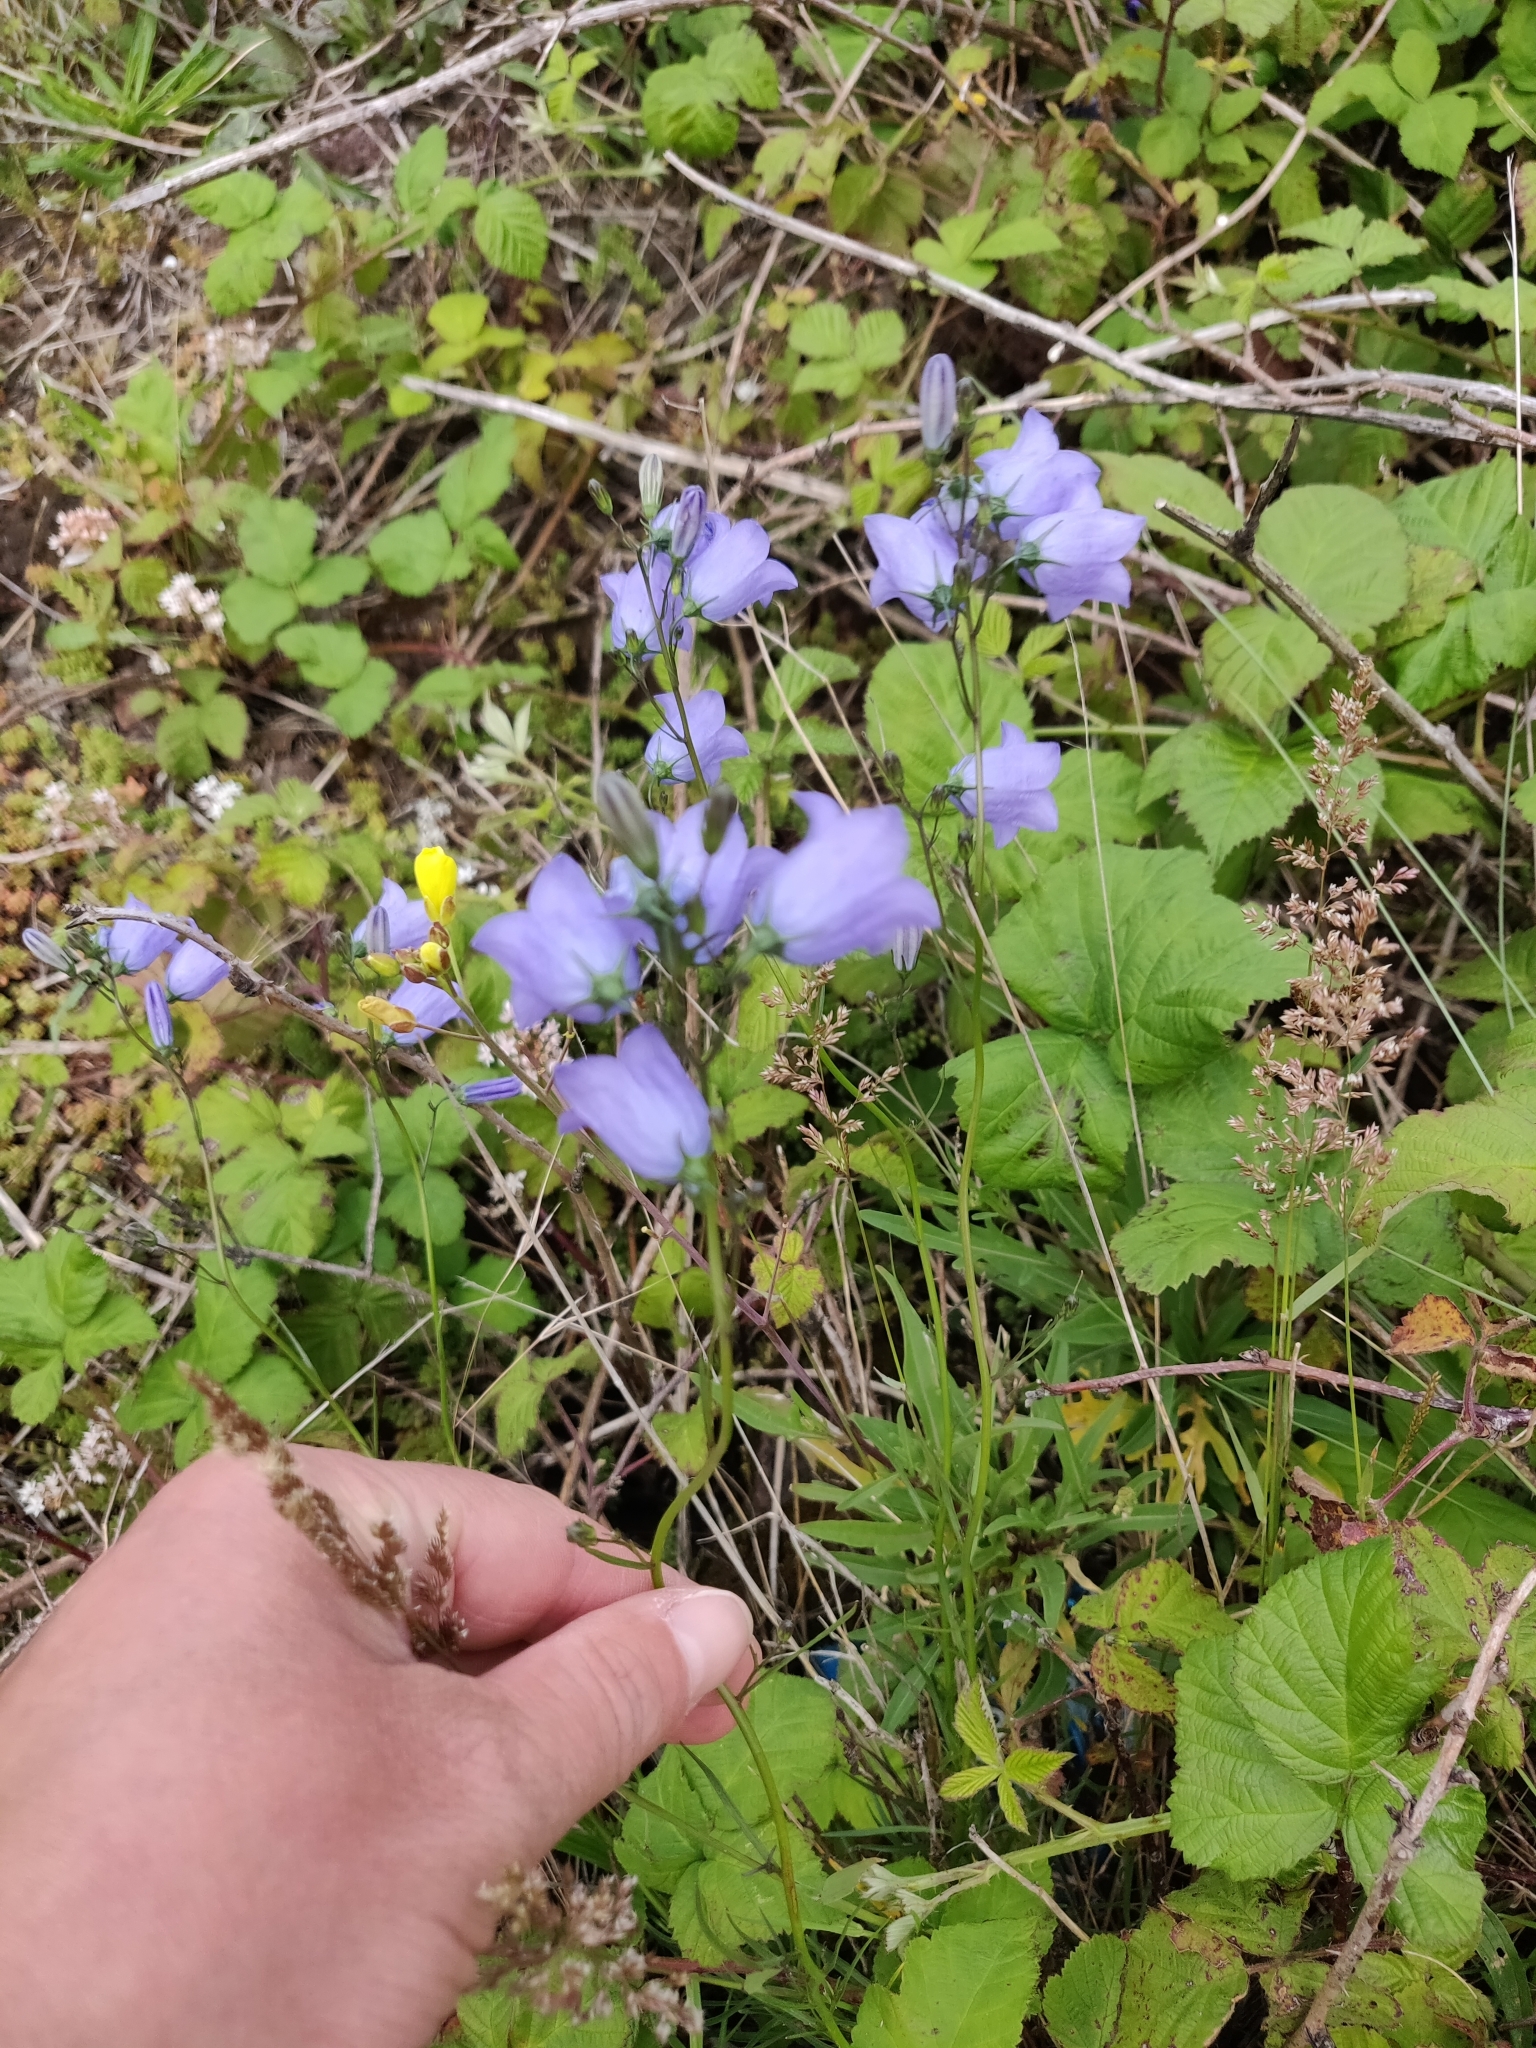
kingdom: Plantae
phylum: Tracheophyta
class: Magnoliopsida
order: Asterales
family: Campanulaceae
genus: Campanula
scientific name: Campanula rotundifolia
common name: Harebell
